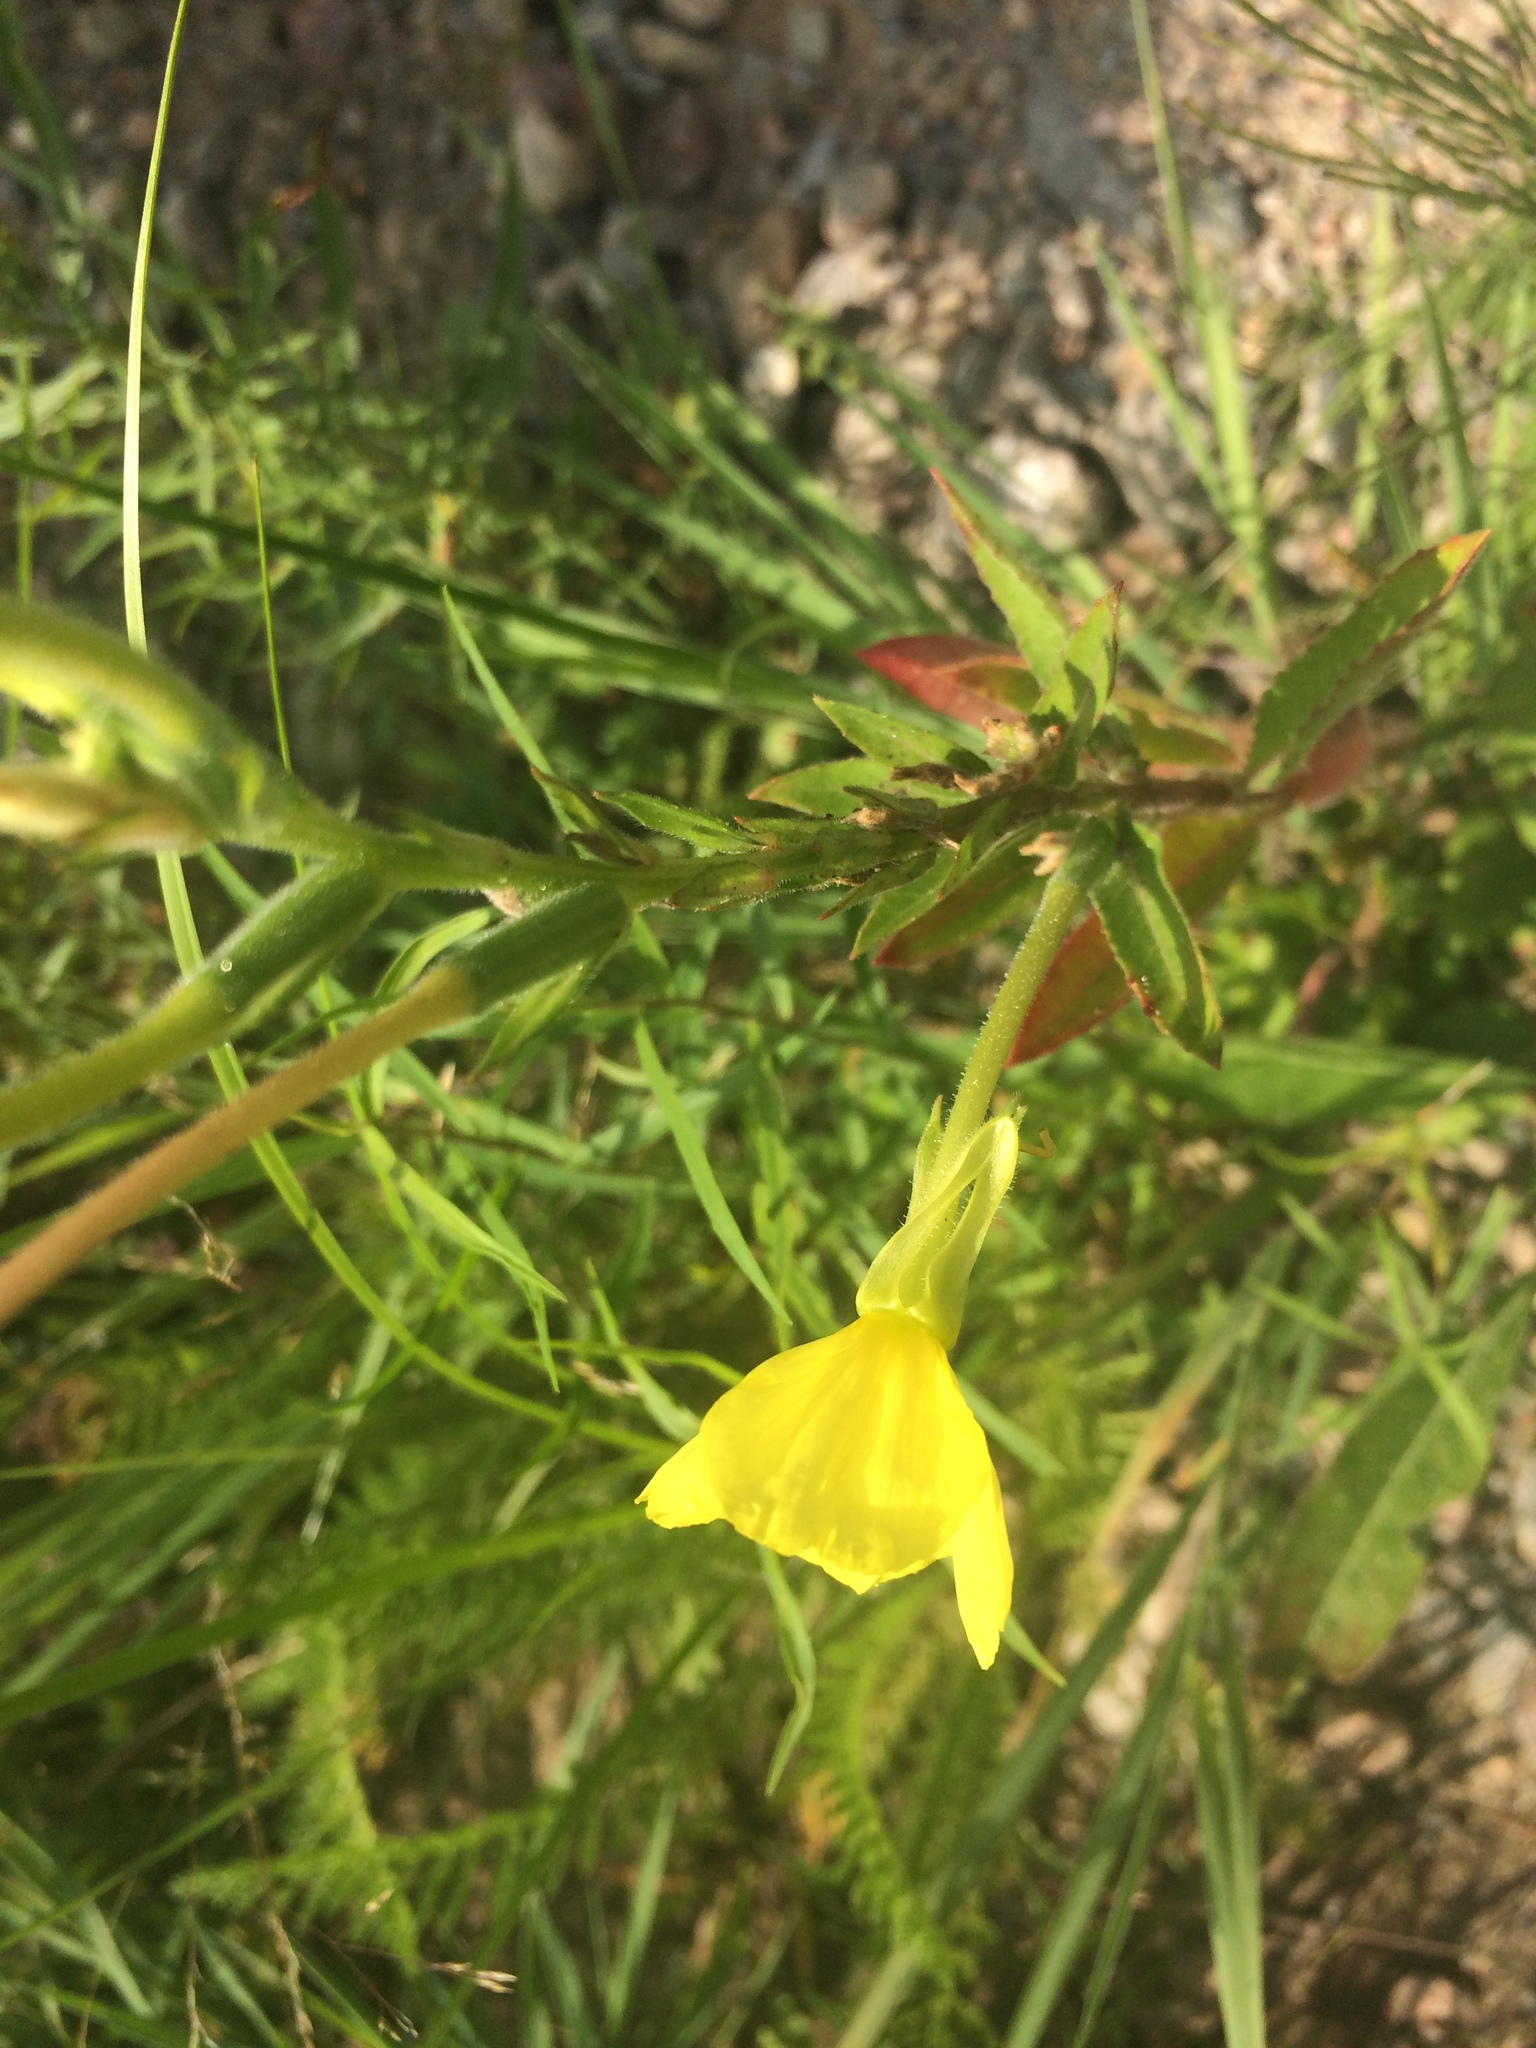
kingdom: Plantae
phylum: Tracheophyta
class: Magnoliopsida
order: Myrtales
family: Onagraceae
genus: Oenothera
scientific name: Oenothera parviflora
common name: Least evening-primrose
